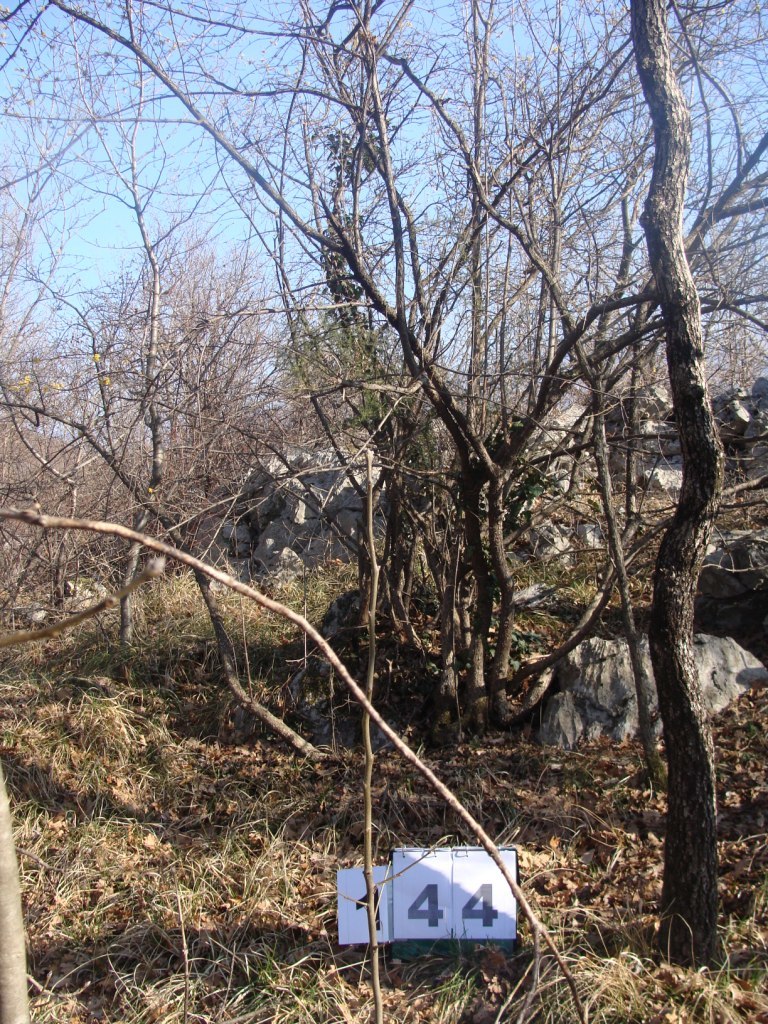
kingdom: Plantae
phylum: Tracheophyta
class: Magnoliopsida
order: Cornales
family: Cornaceae
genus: Cornus
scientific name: Cornus mas
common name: Cornelian-cherry
